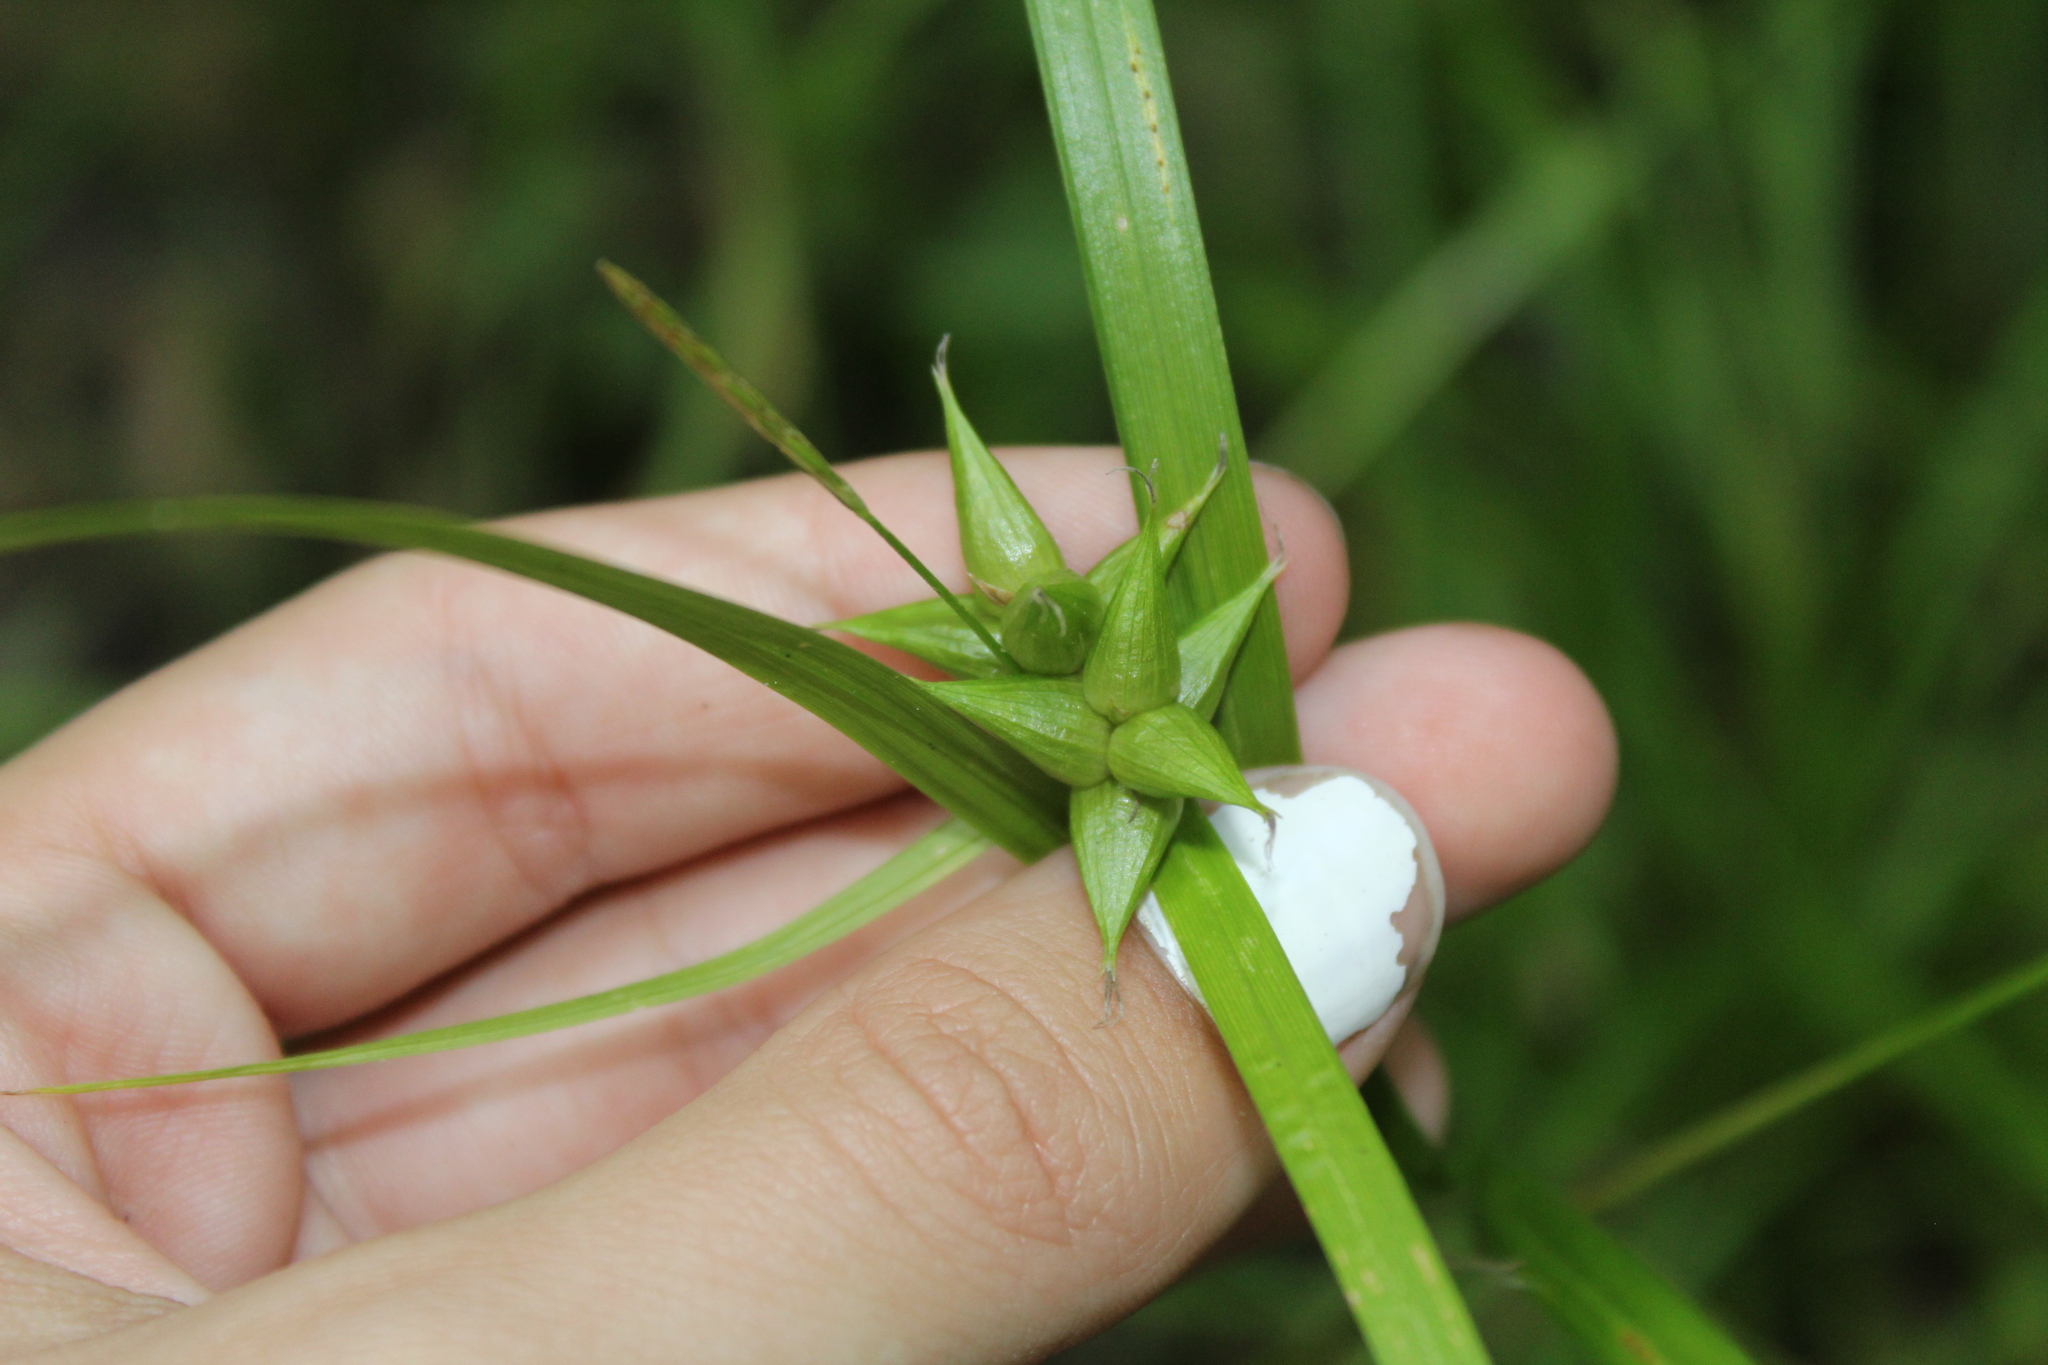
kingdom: Plantae
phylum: Tracheophyta
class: Liliopsida
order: Poales
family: Cyperaceae
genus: Carex
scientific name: Carex intumescens
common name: Greater bladder sedge
